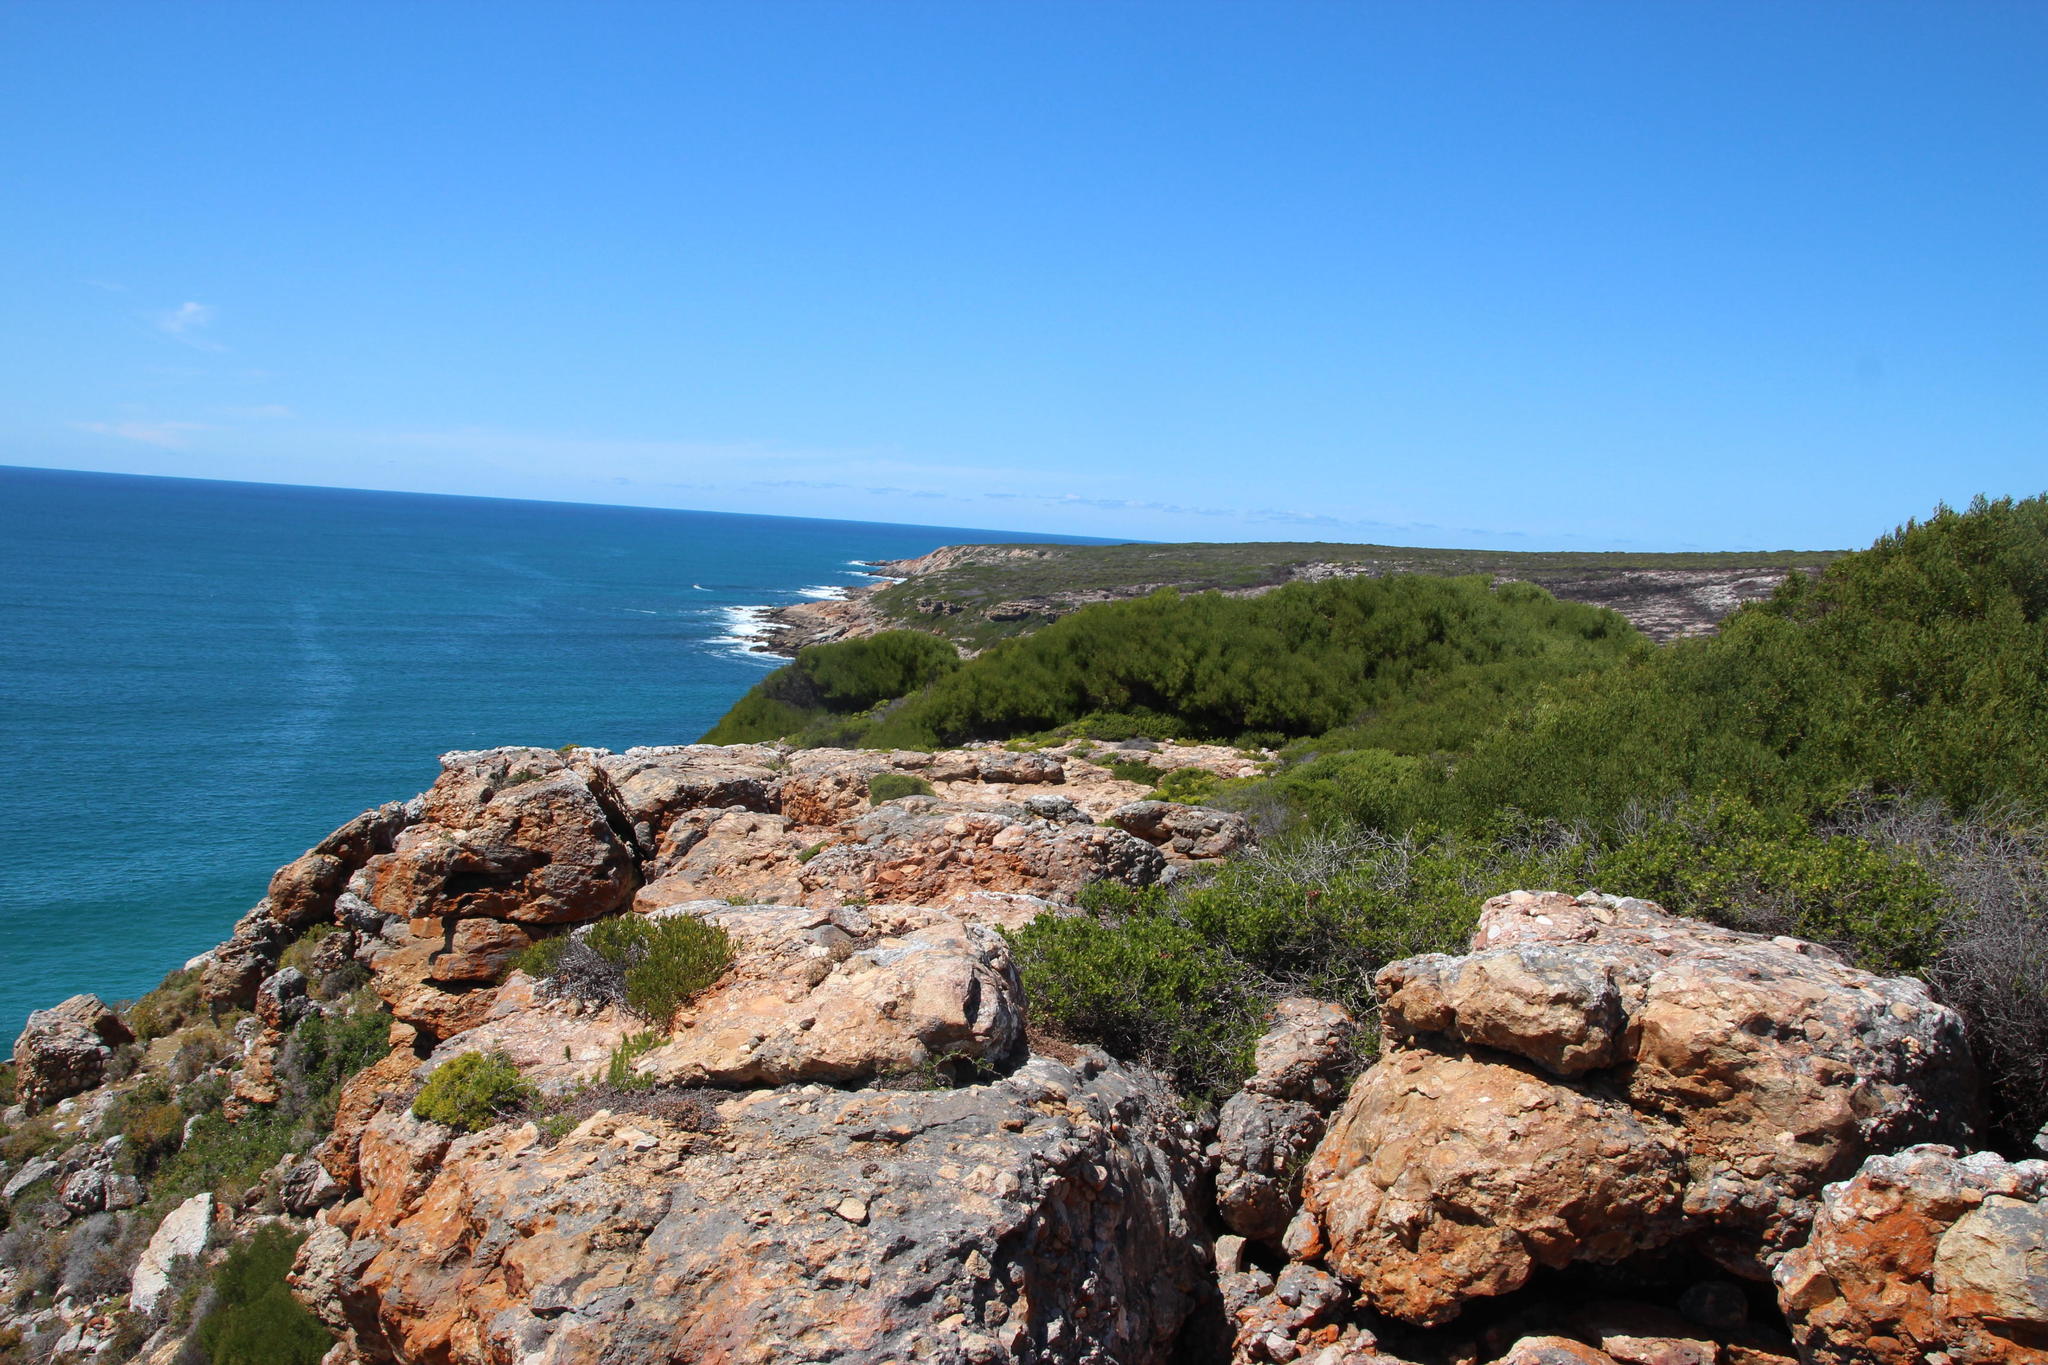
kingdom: Plantae
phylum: Tracheophyta
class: Magnoliopsida
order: Fabales
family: Fabaceae
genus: Acacia
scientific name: Acacia cyclops
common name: Coastal wattle
